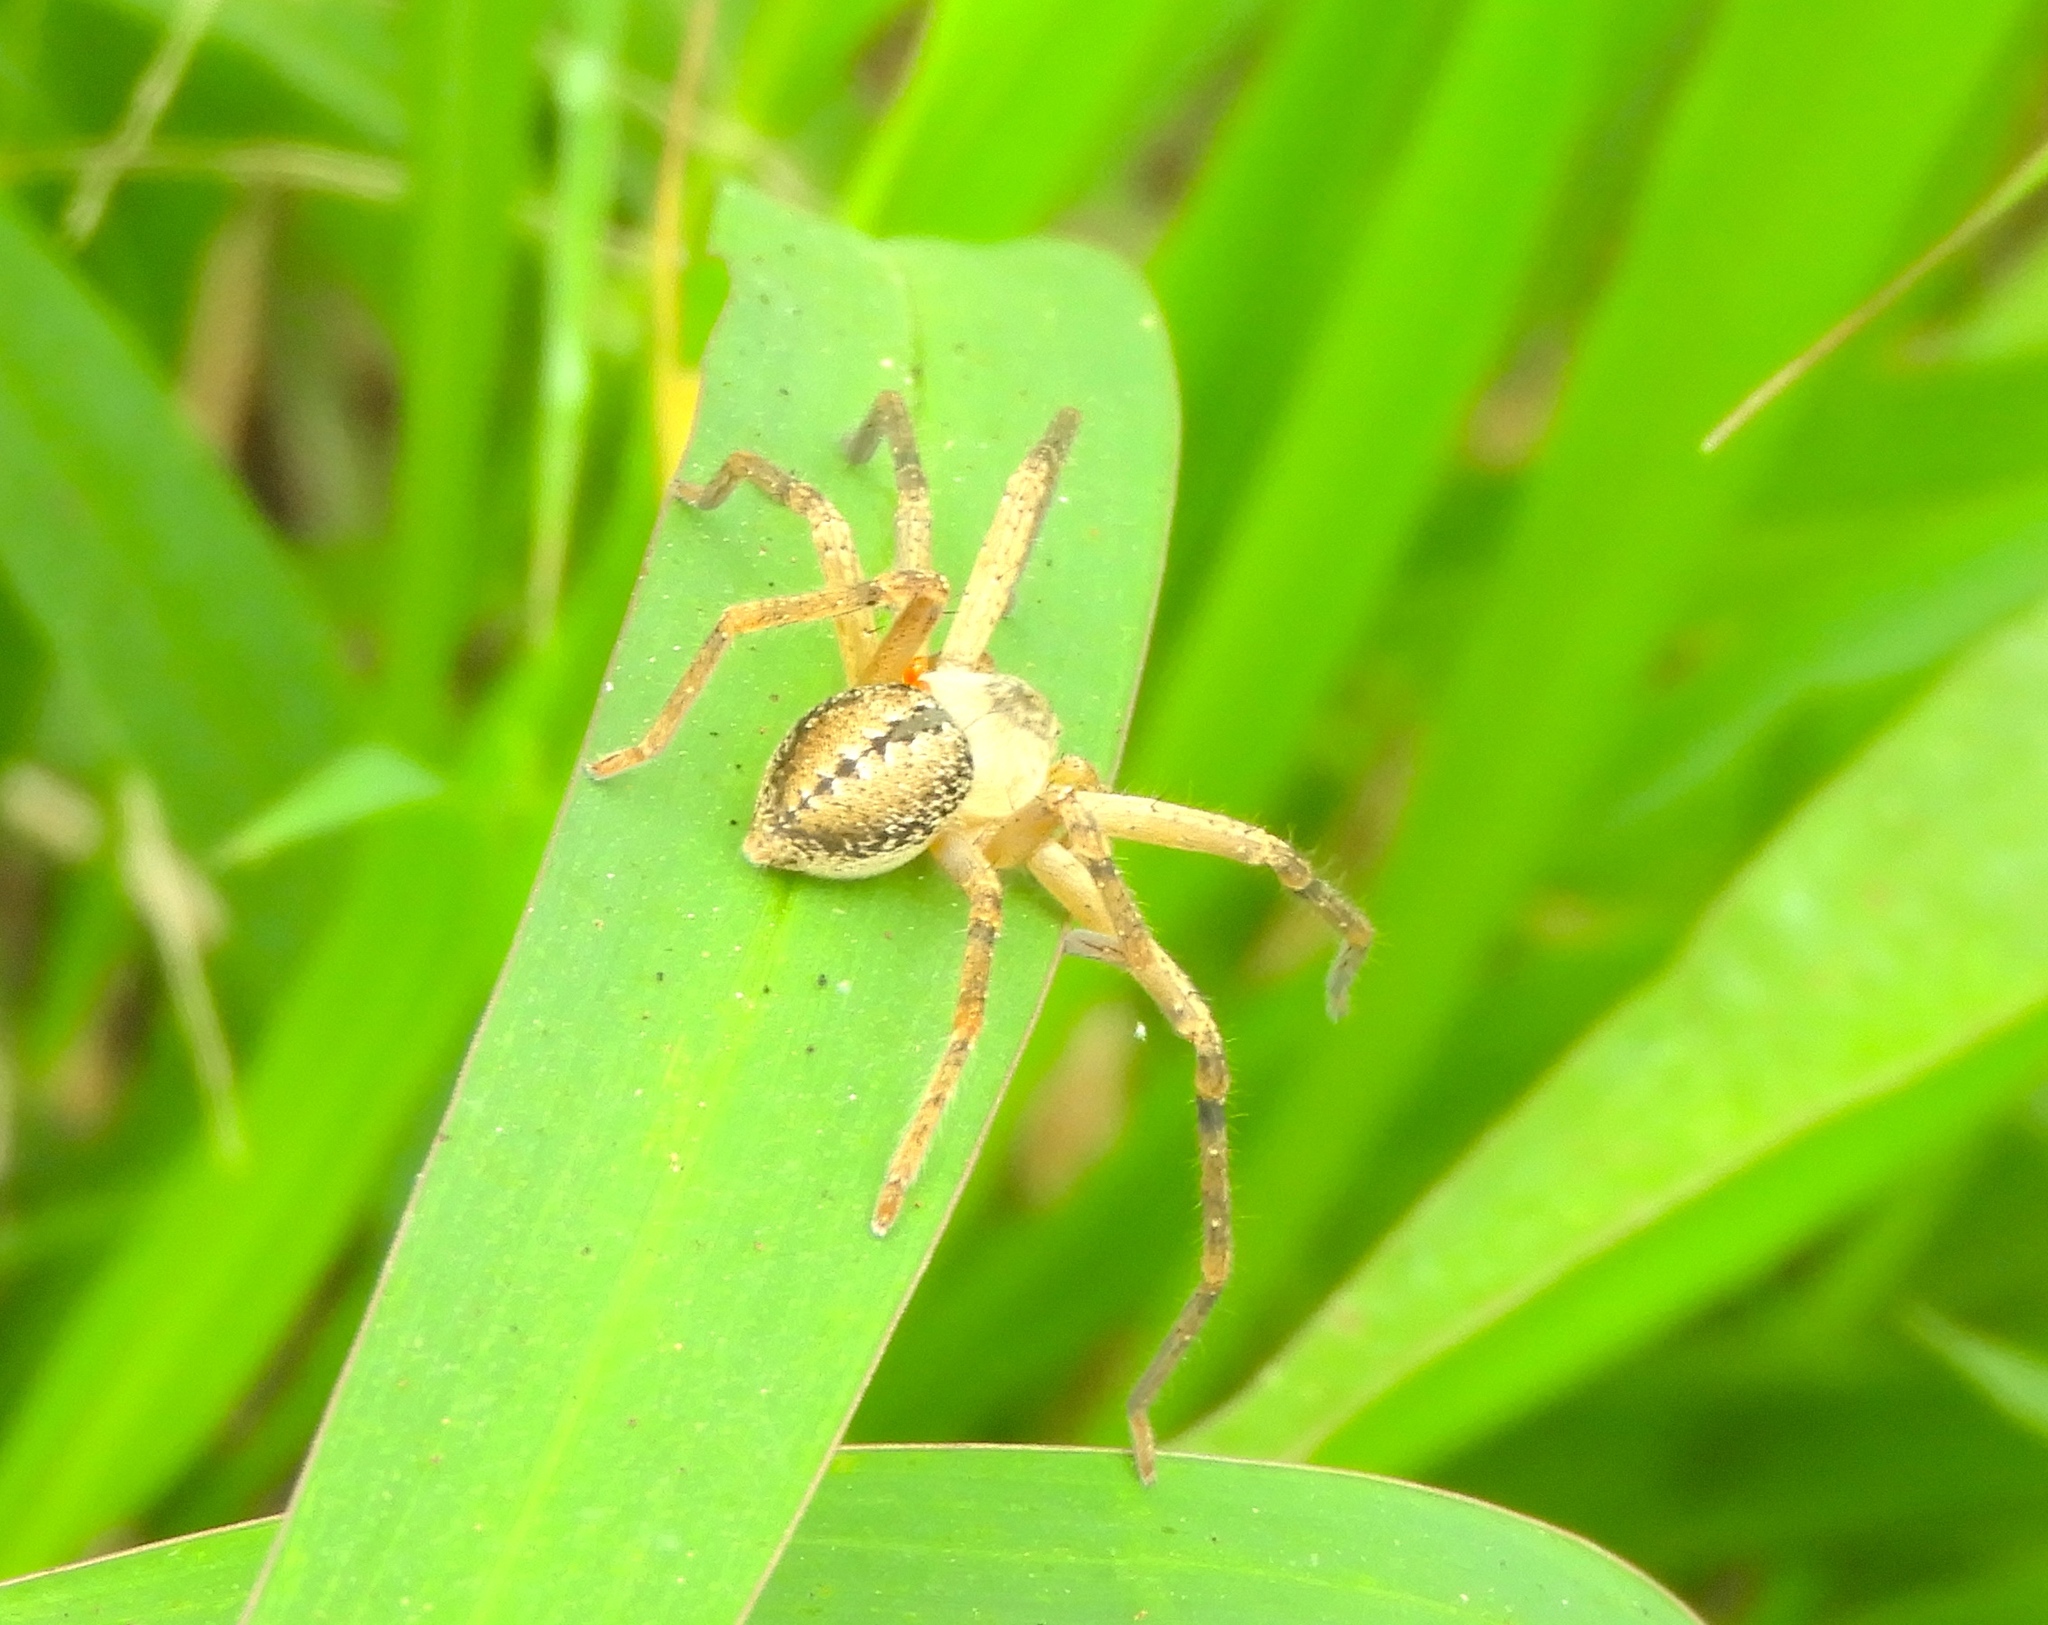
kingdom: Animalia
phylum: Arthropoda
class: Arachnida
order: Araneae
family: Sparassidae
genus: Curicaberis
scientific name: Curicaberis culiacan
